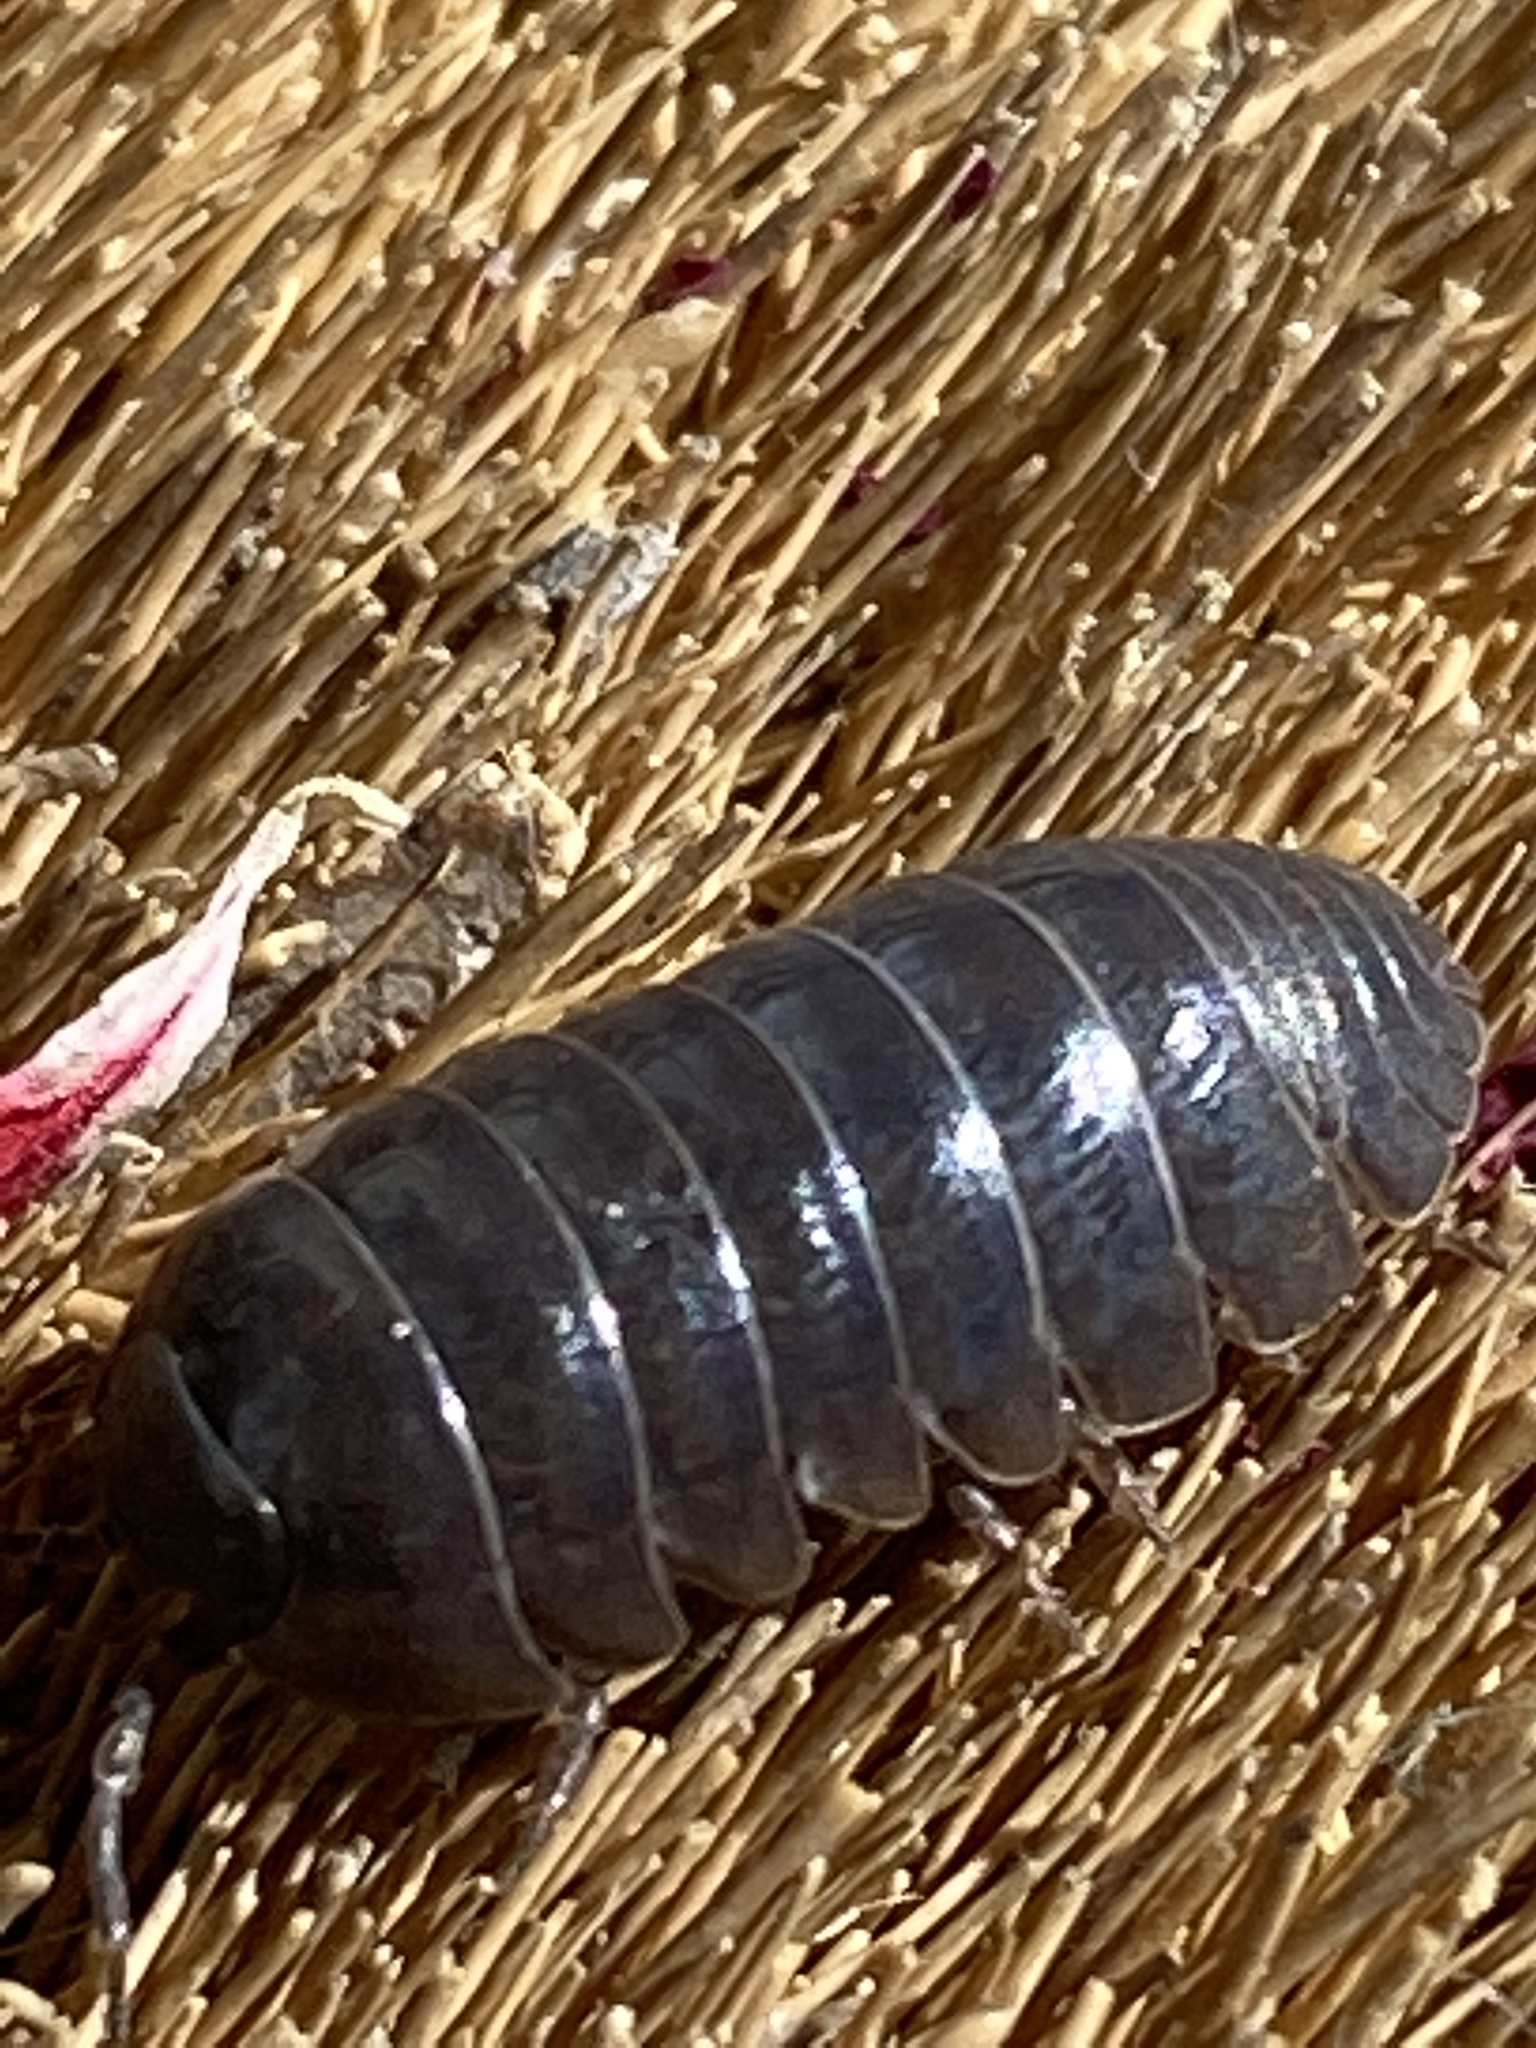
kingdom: Animalia
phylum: Arthropoda
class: Malacostraca
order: Isopoda
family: Armadillidiidae
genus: Armadillidium
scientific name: Armadillidium vulgare
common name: Common pill woodlouse
